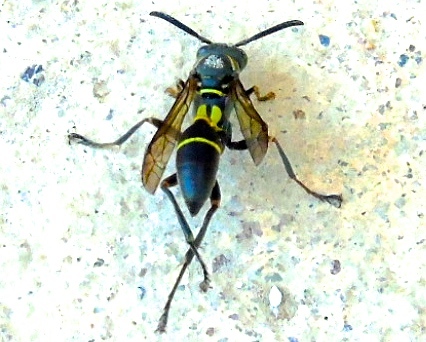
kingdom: Animalia
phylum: Arthropoda
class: Insecta
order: Hymenoptera
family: Vespidae
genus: Mischocyttarus
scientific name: Mischocyttarus rufidens
